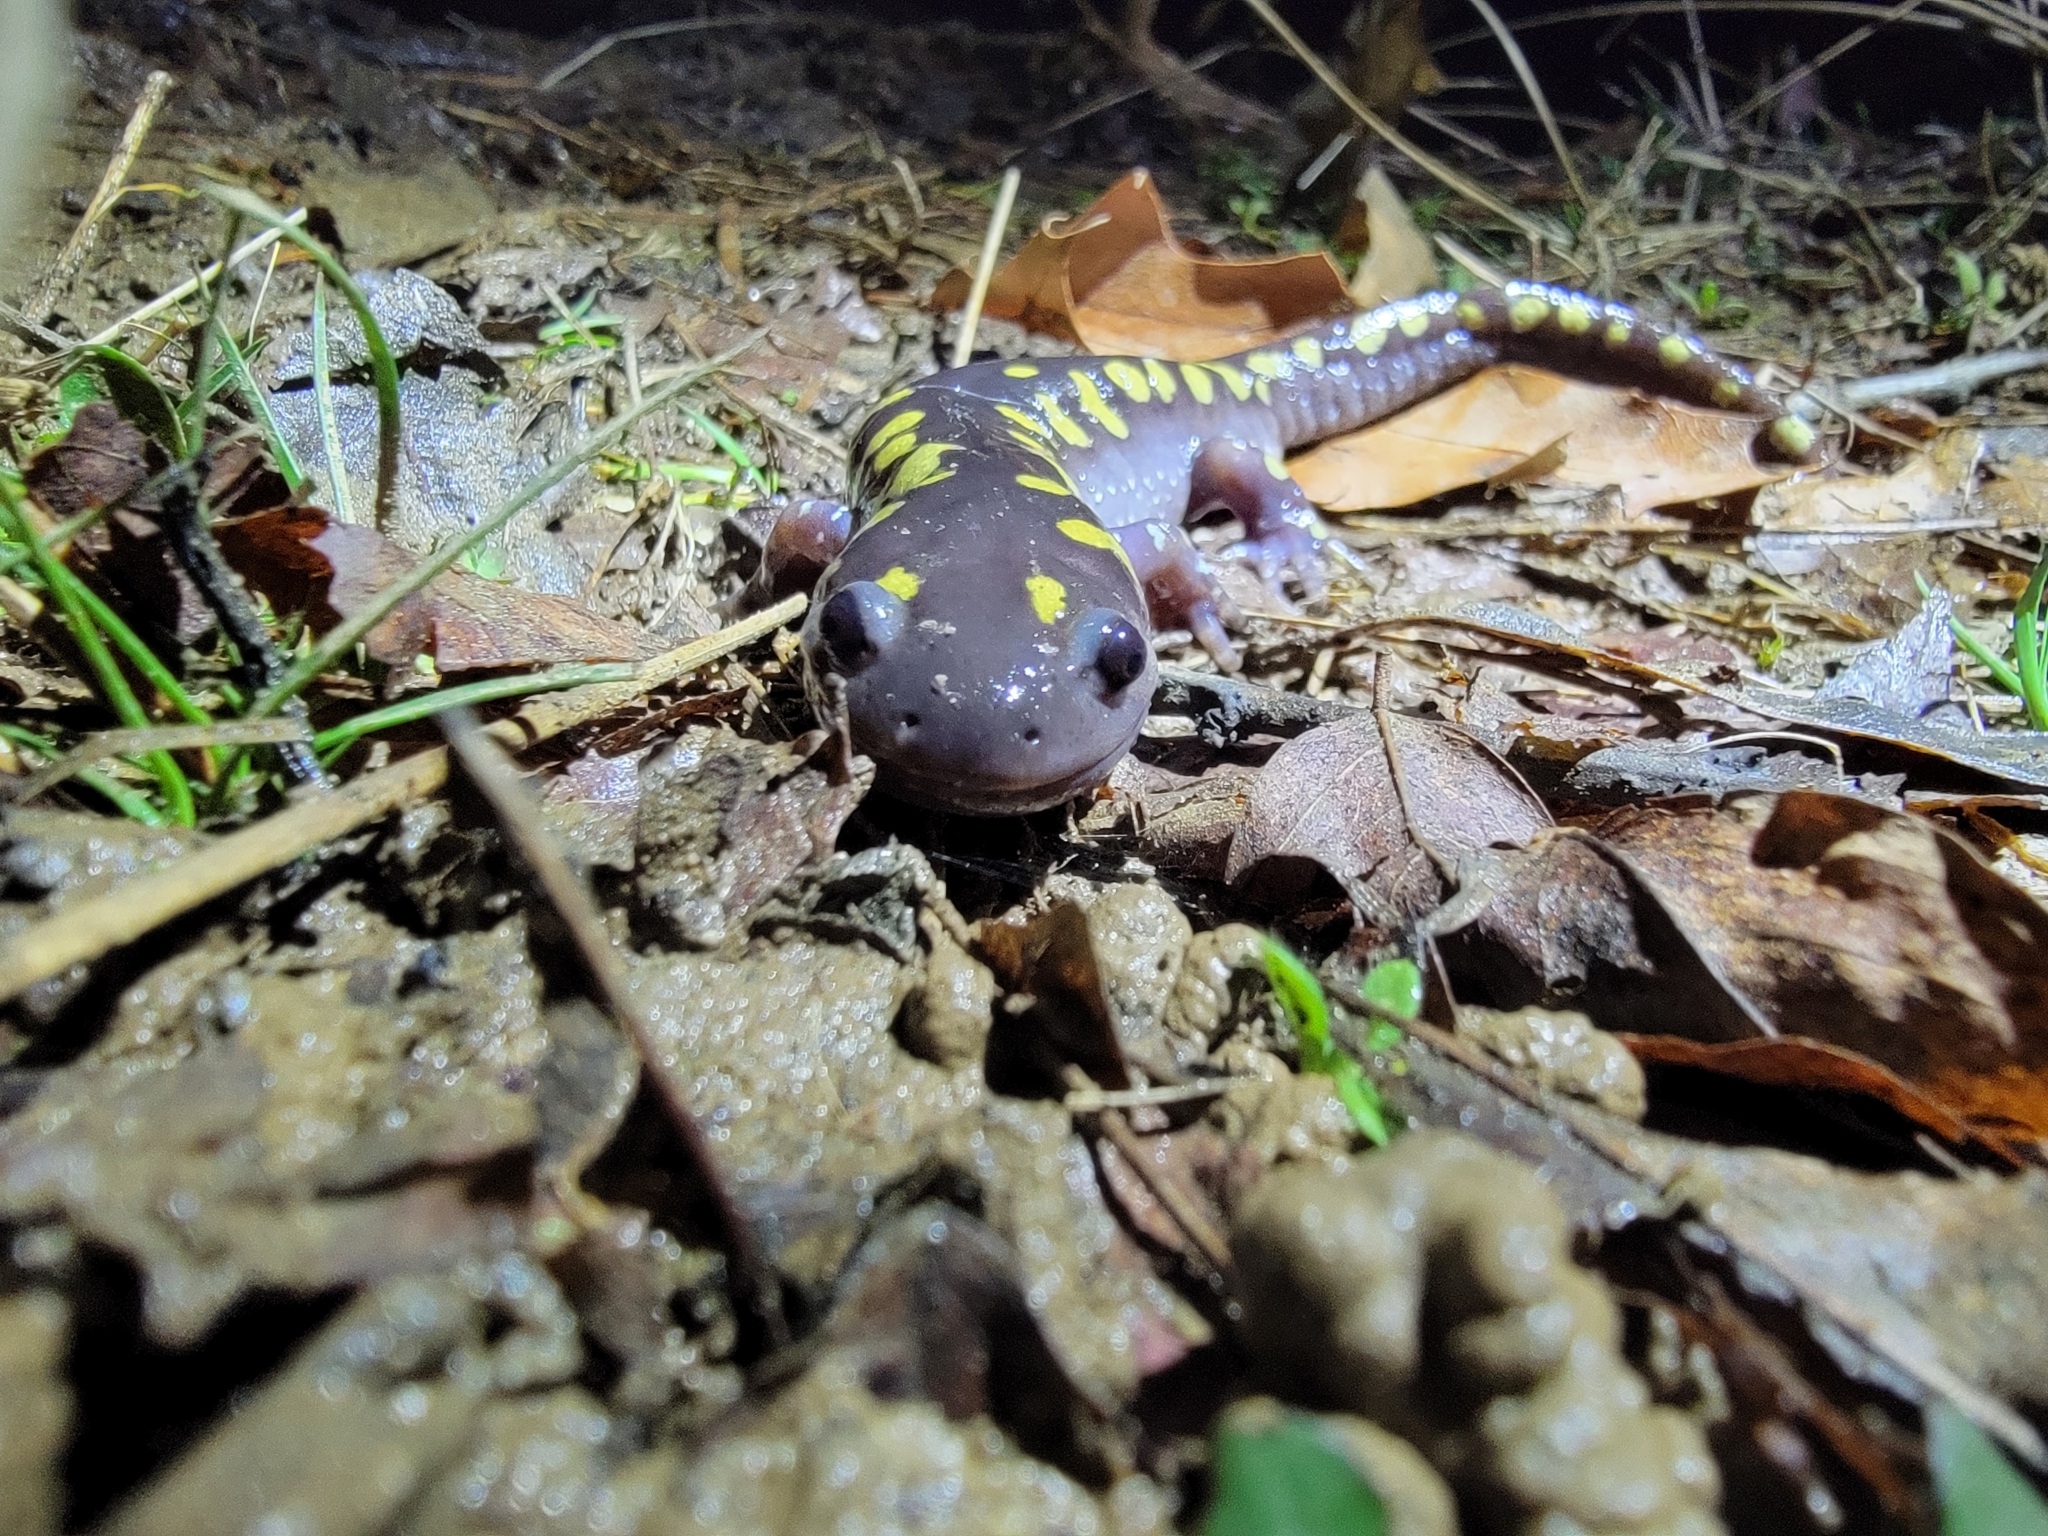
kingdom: Animalia
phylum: Chordata
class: Amphibia
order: Caudata
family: Ambystomatidae
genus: Ambystoma
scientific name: Ambystoma maculatum
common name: Spotted salamander
